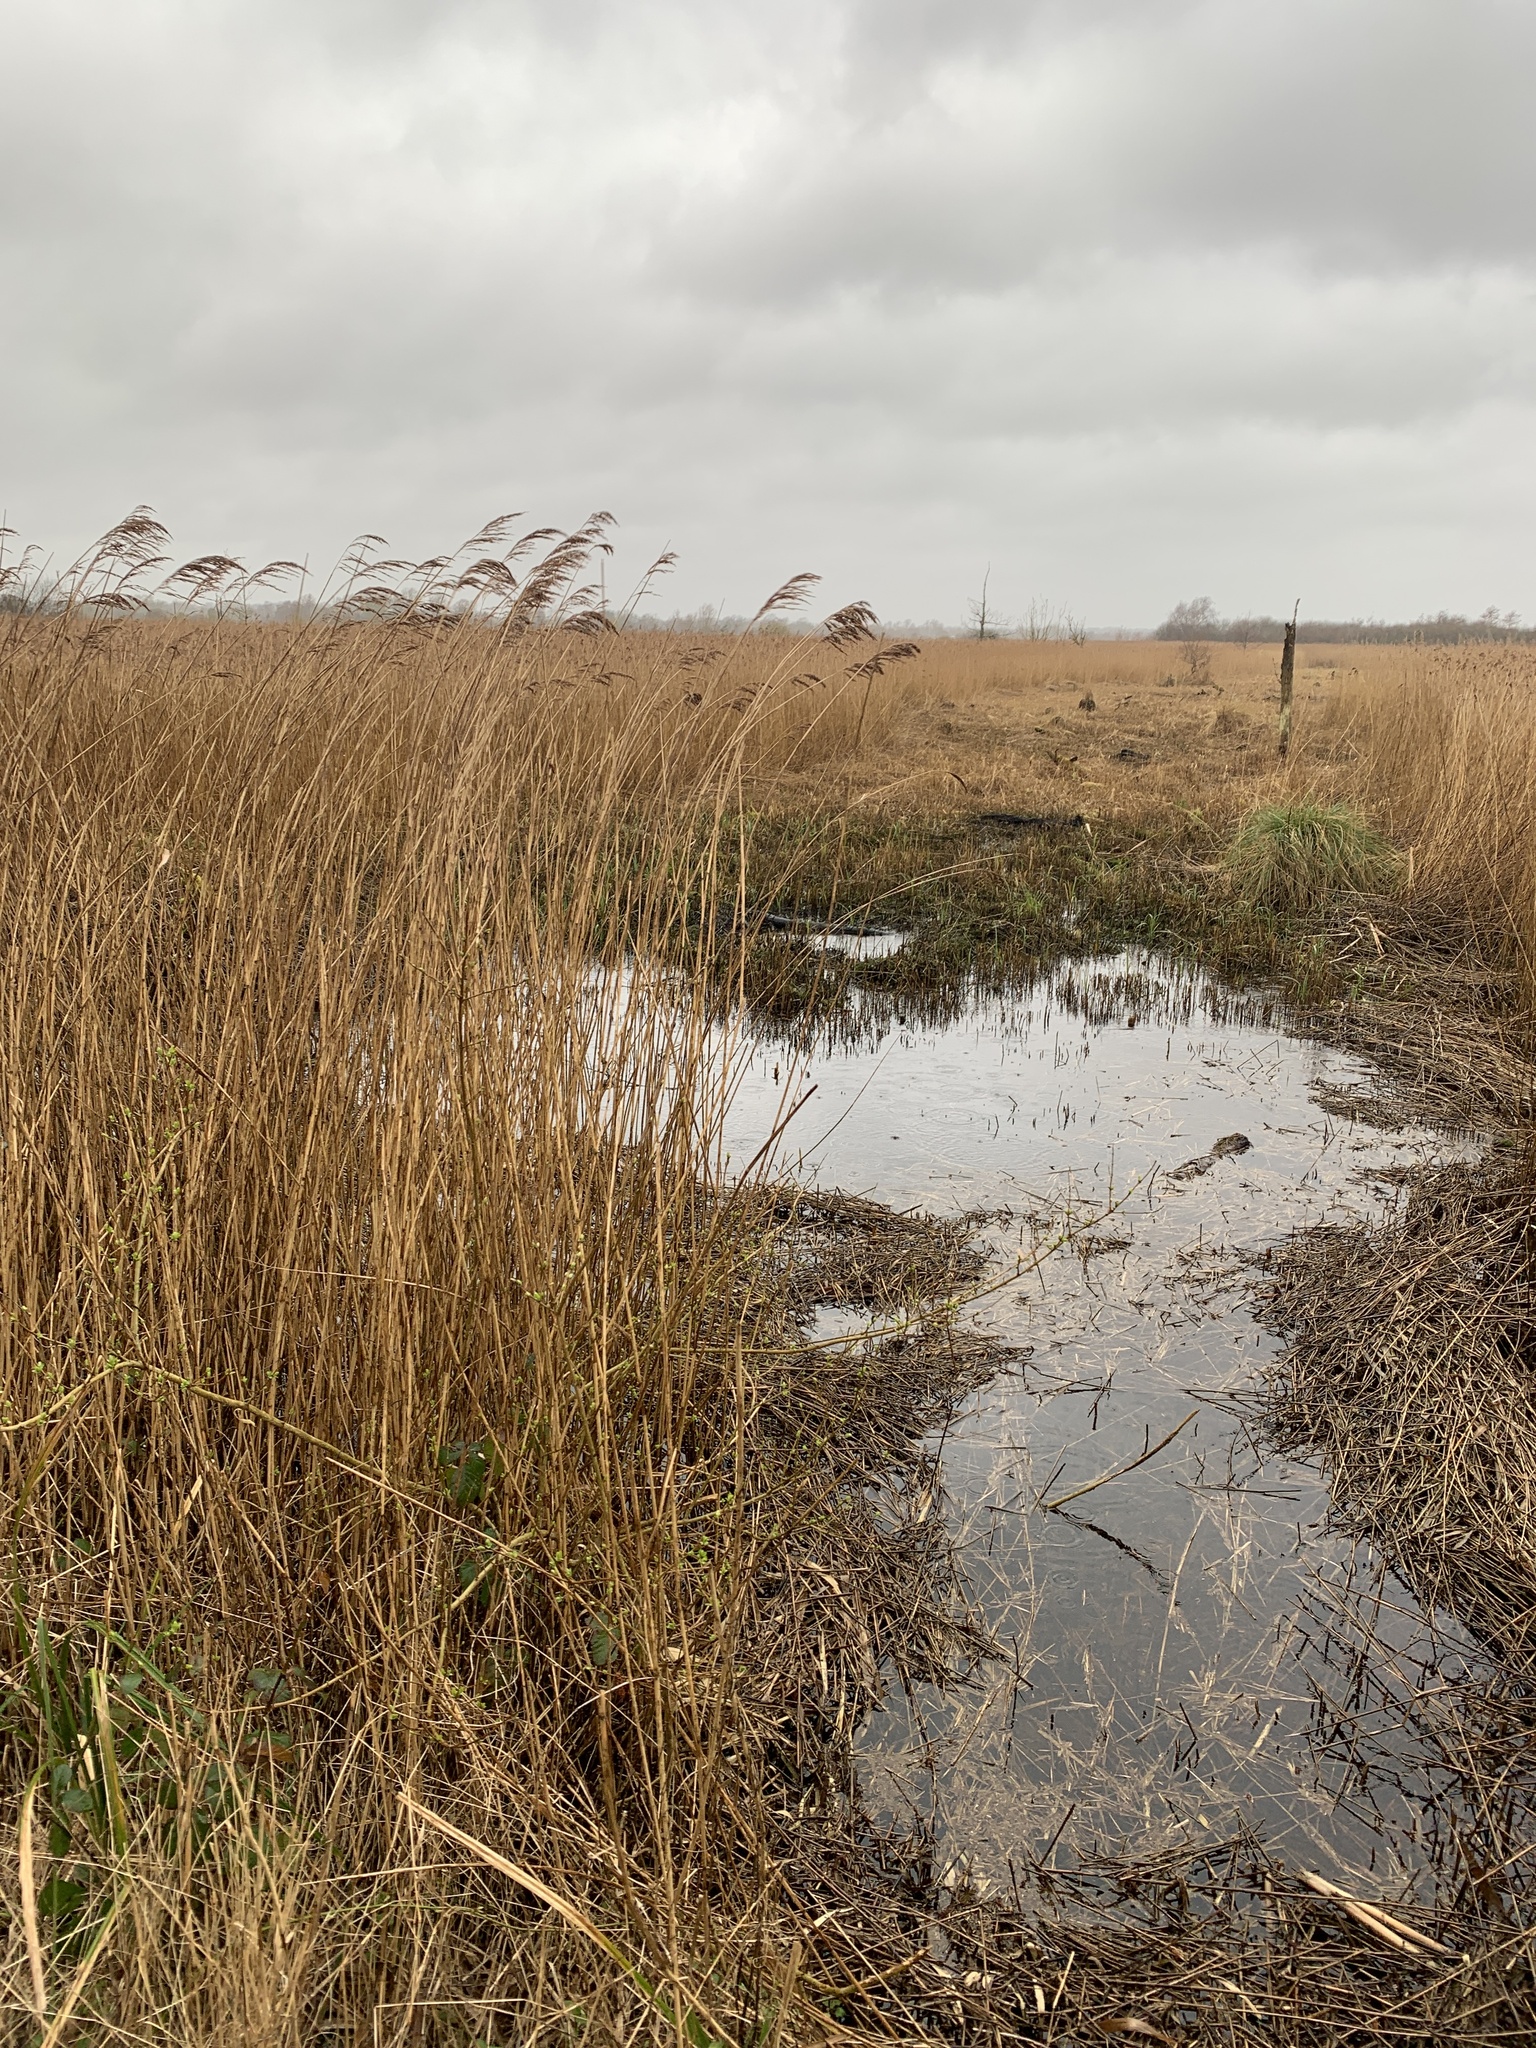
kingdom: Plantae
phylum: Tracheophyta
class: Liliopsida
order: Poales
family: Poaceae
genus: Phragmites
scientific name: Phragmites australis
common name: Common reed
